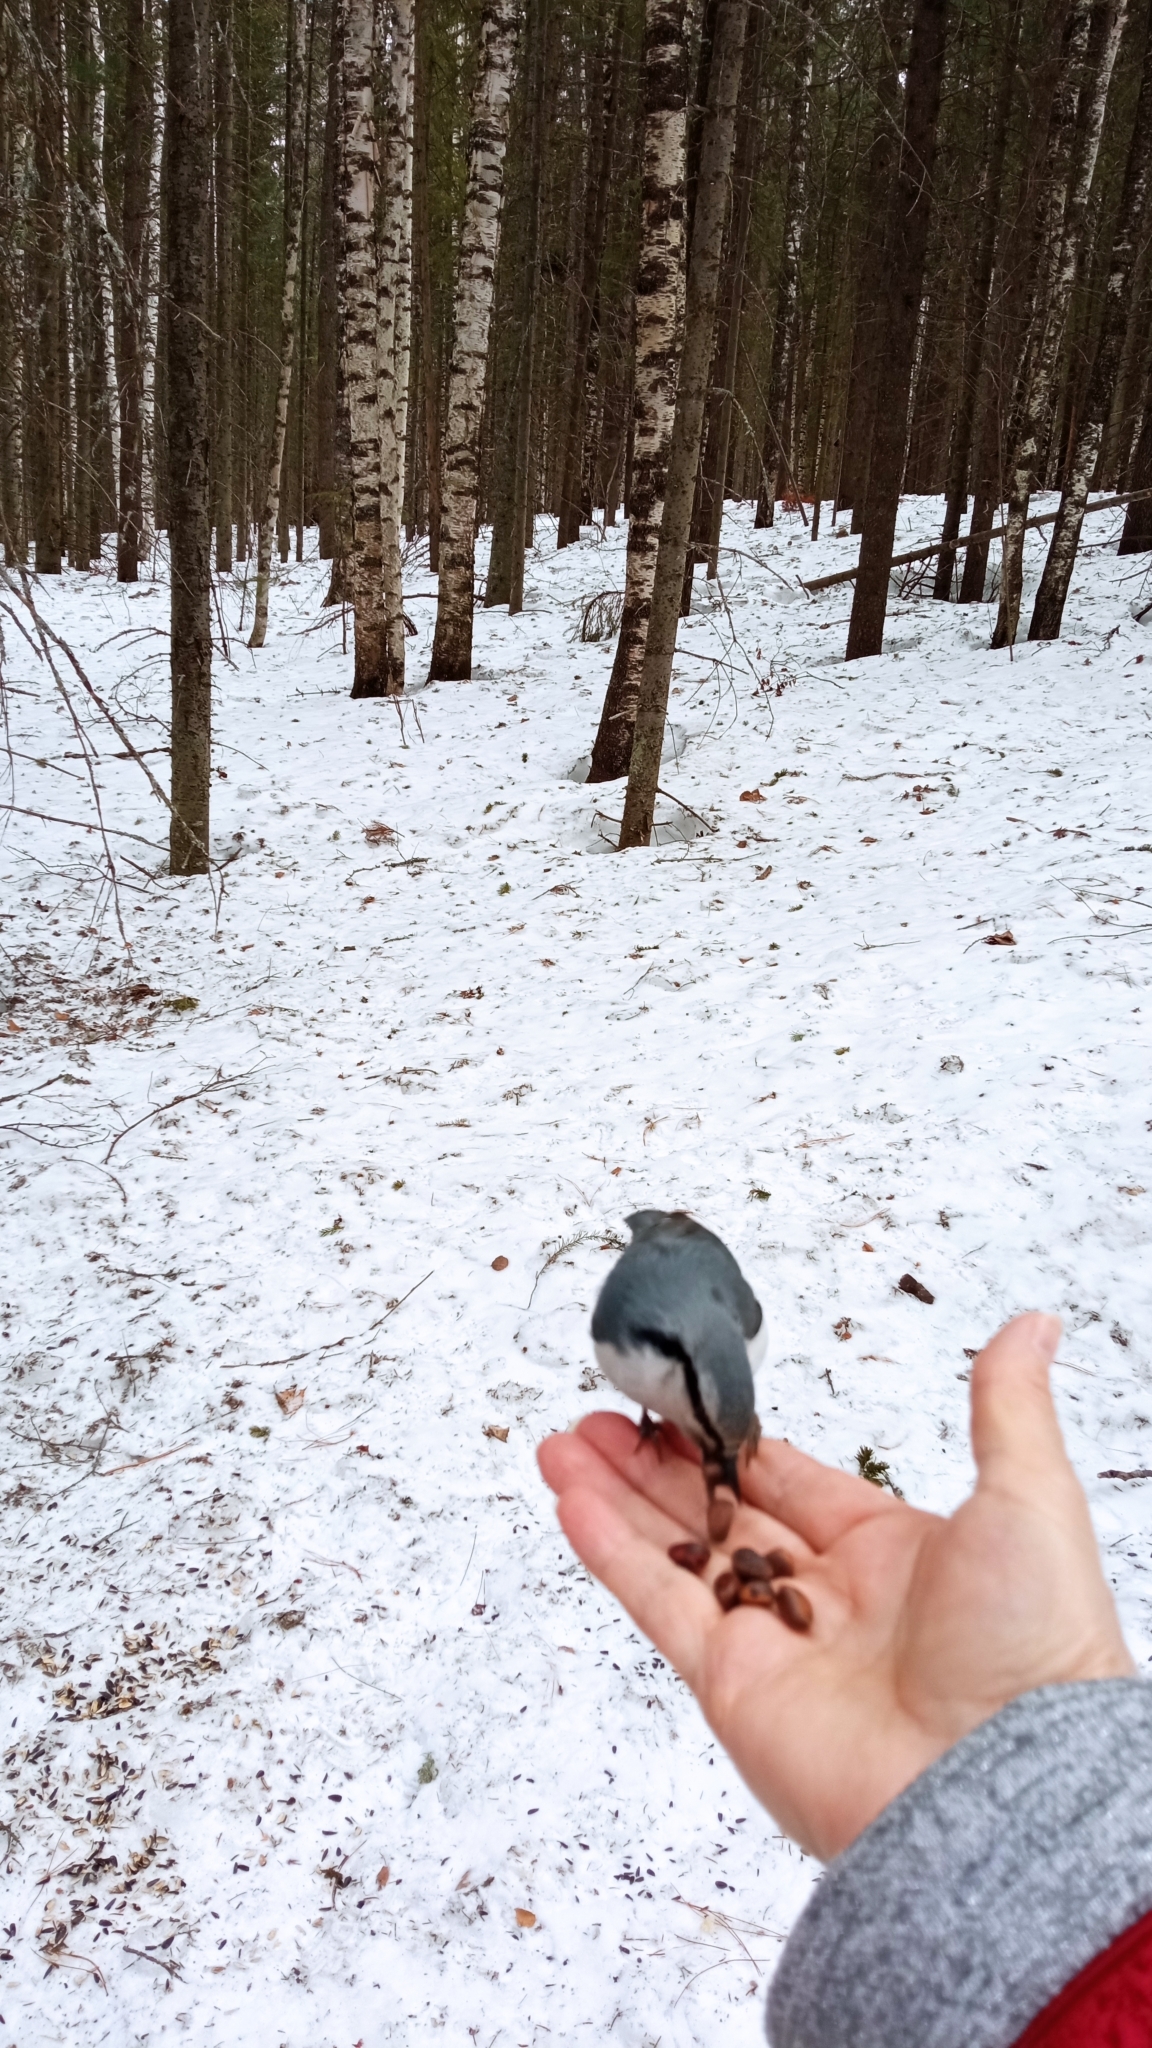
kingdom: Animalia
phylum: Chordata
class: Aves
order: Passeriformes
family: Sittidae
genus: Sitta
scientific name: Sitta europaea
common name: Eurasian nuthatch
